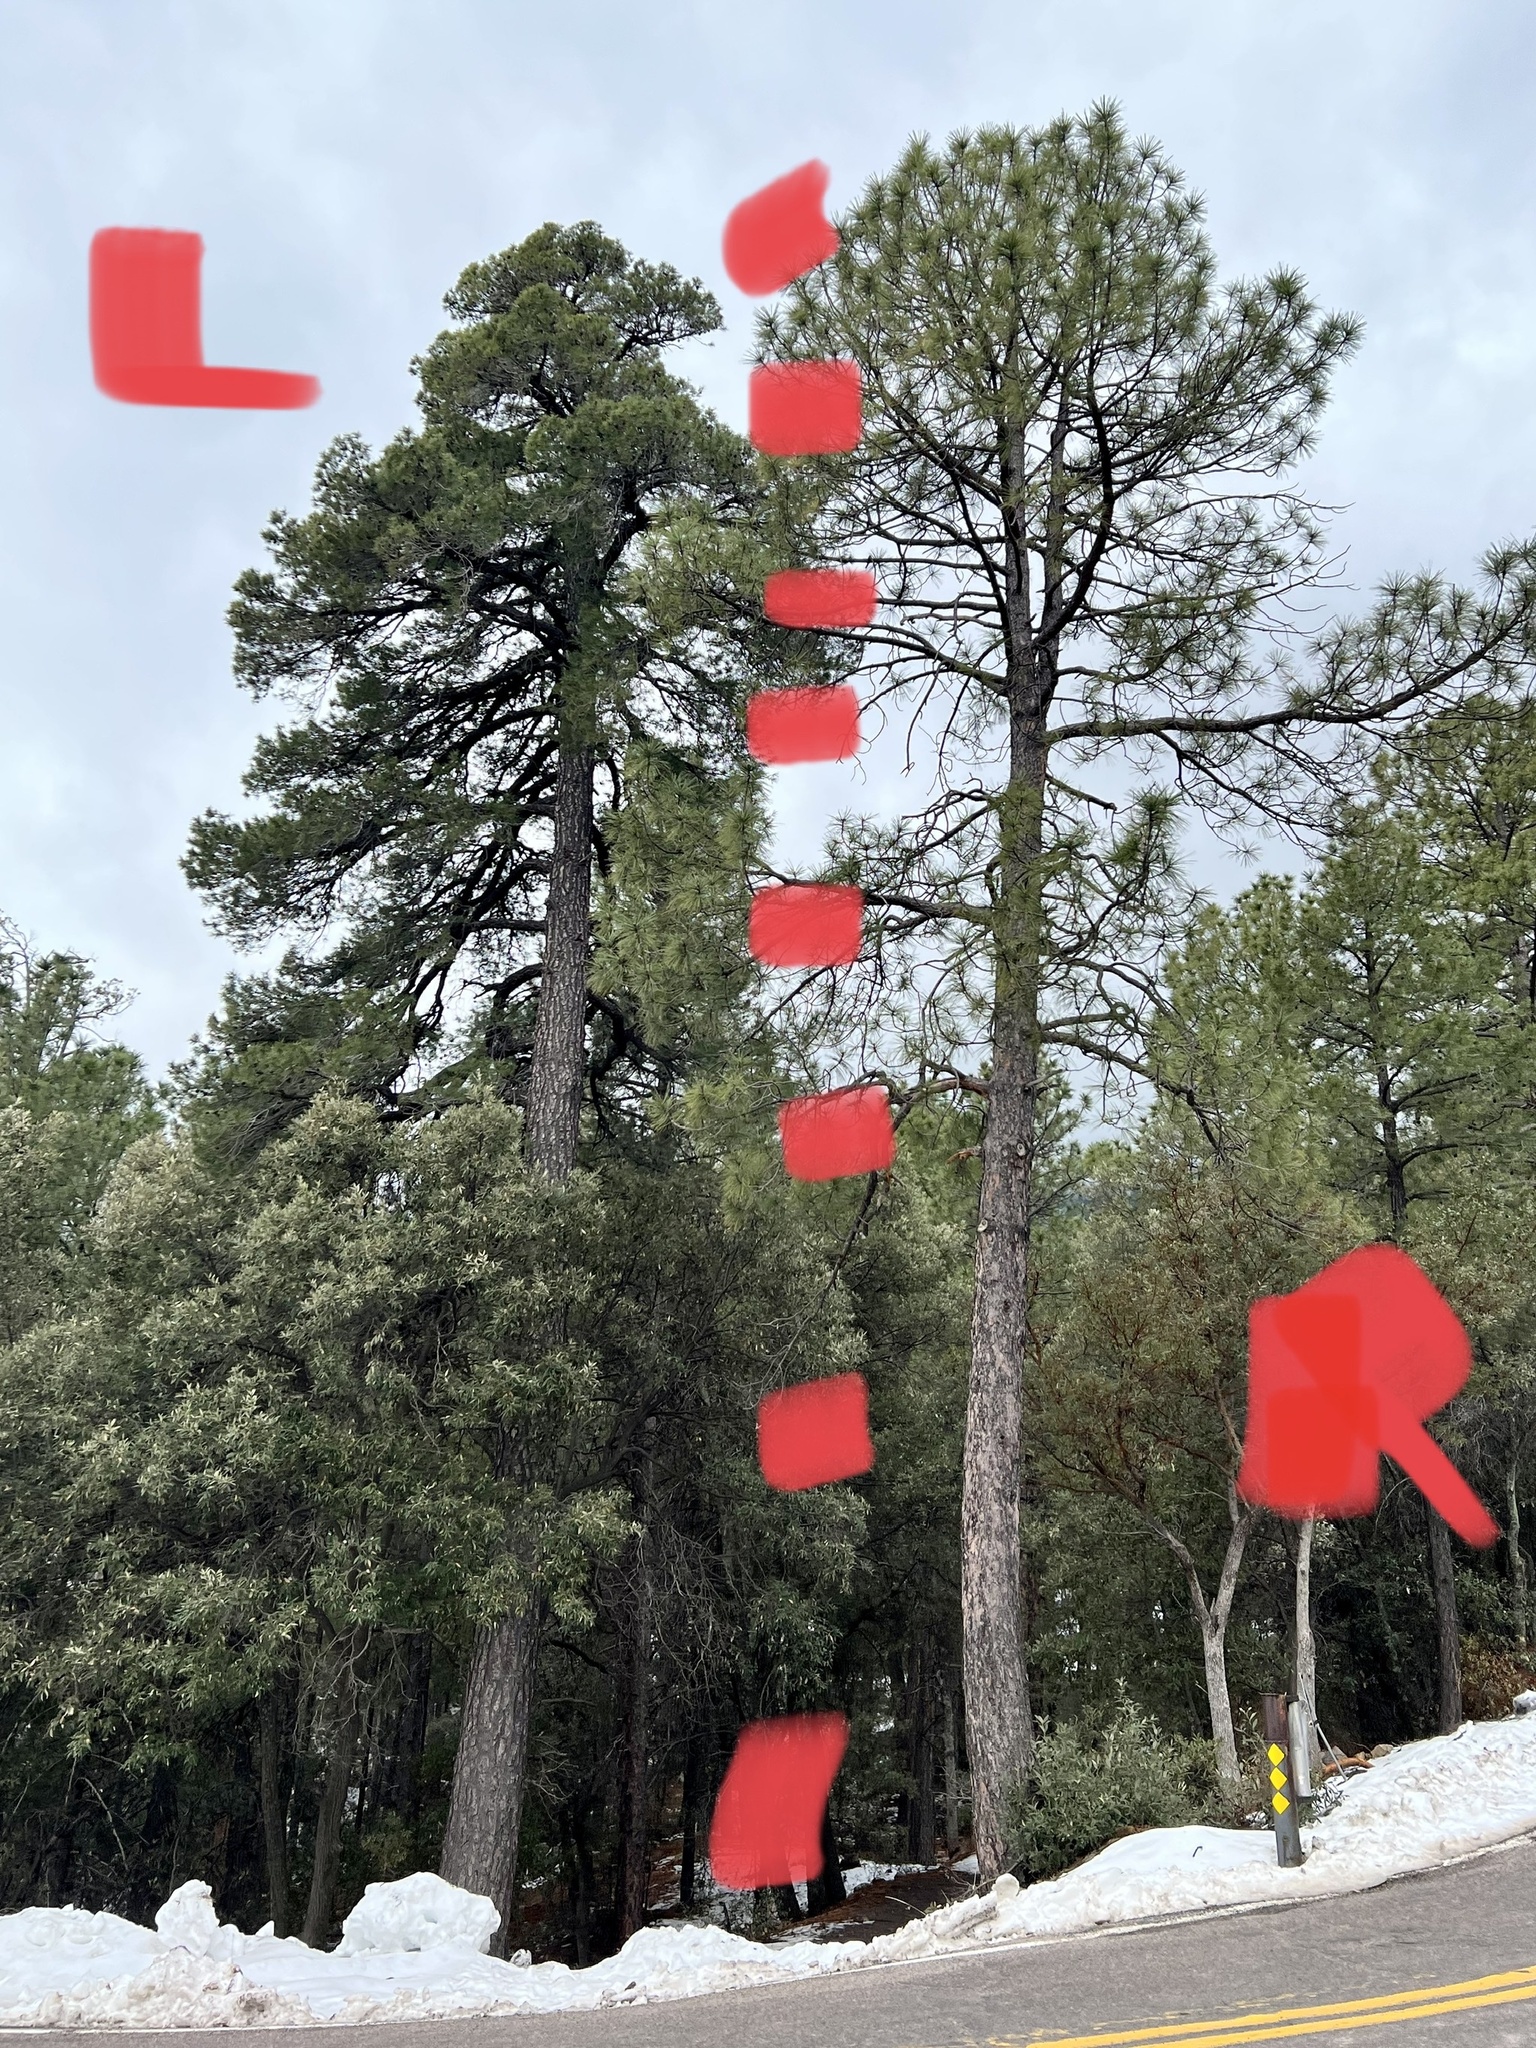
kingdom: Plantae
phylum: Tracheophyta
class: Pinopsida
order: Pinales
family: Pinaceae
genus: Pinus
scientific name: Pinus leiophylla
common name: Chihuahua pine
